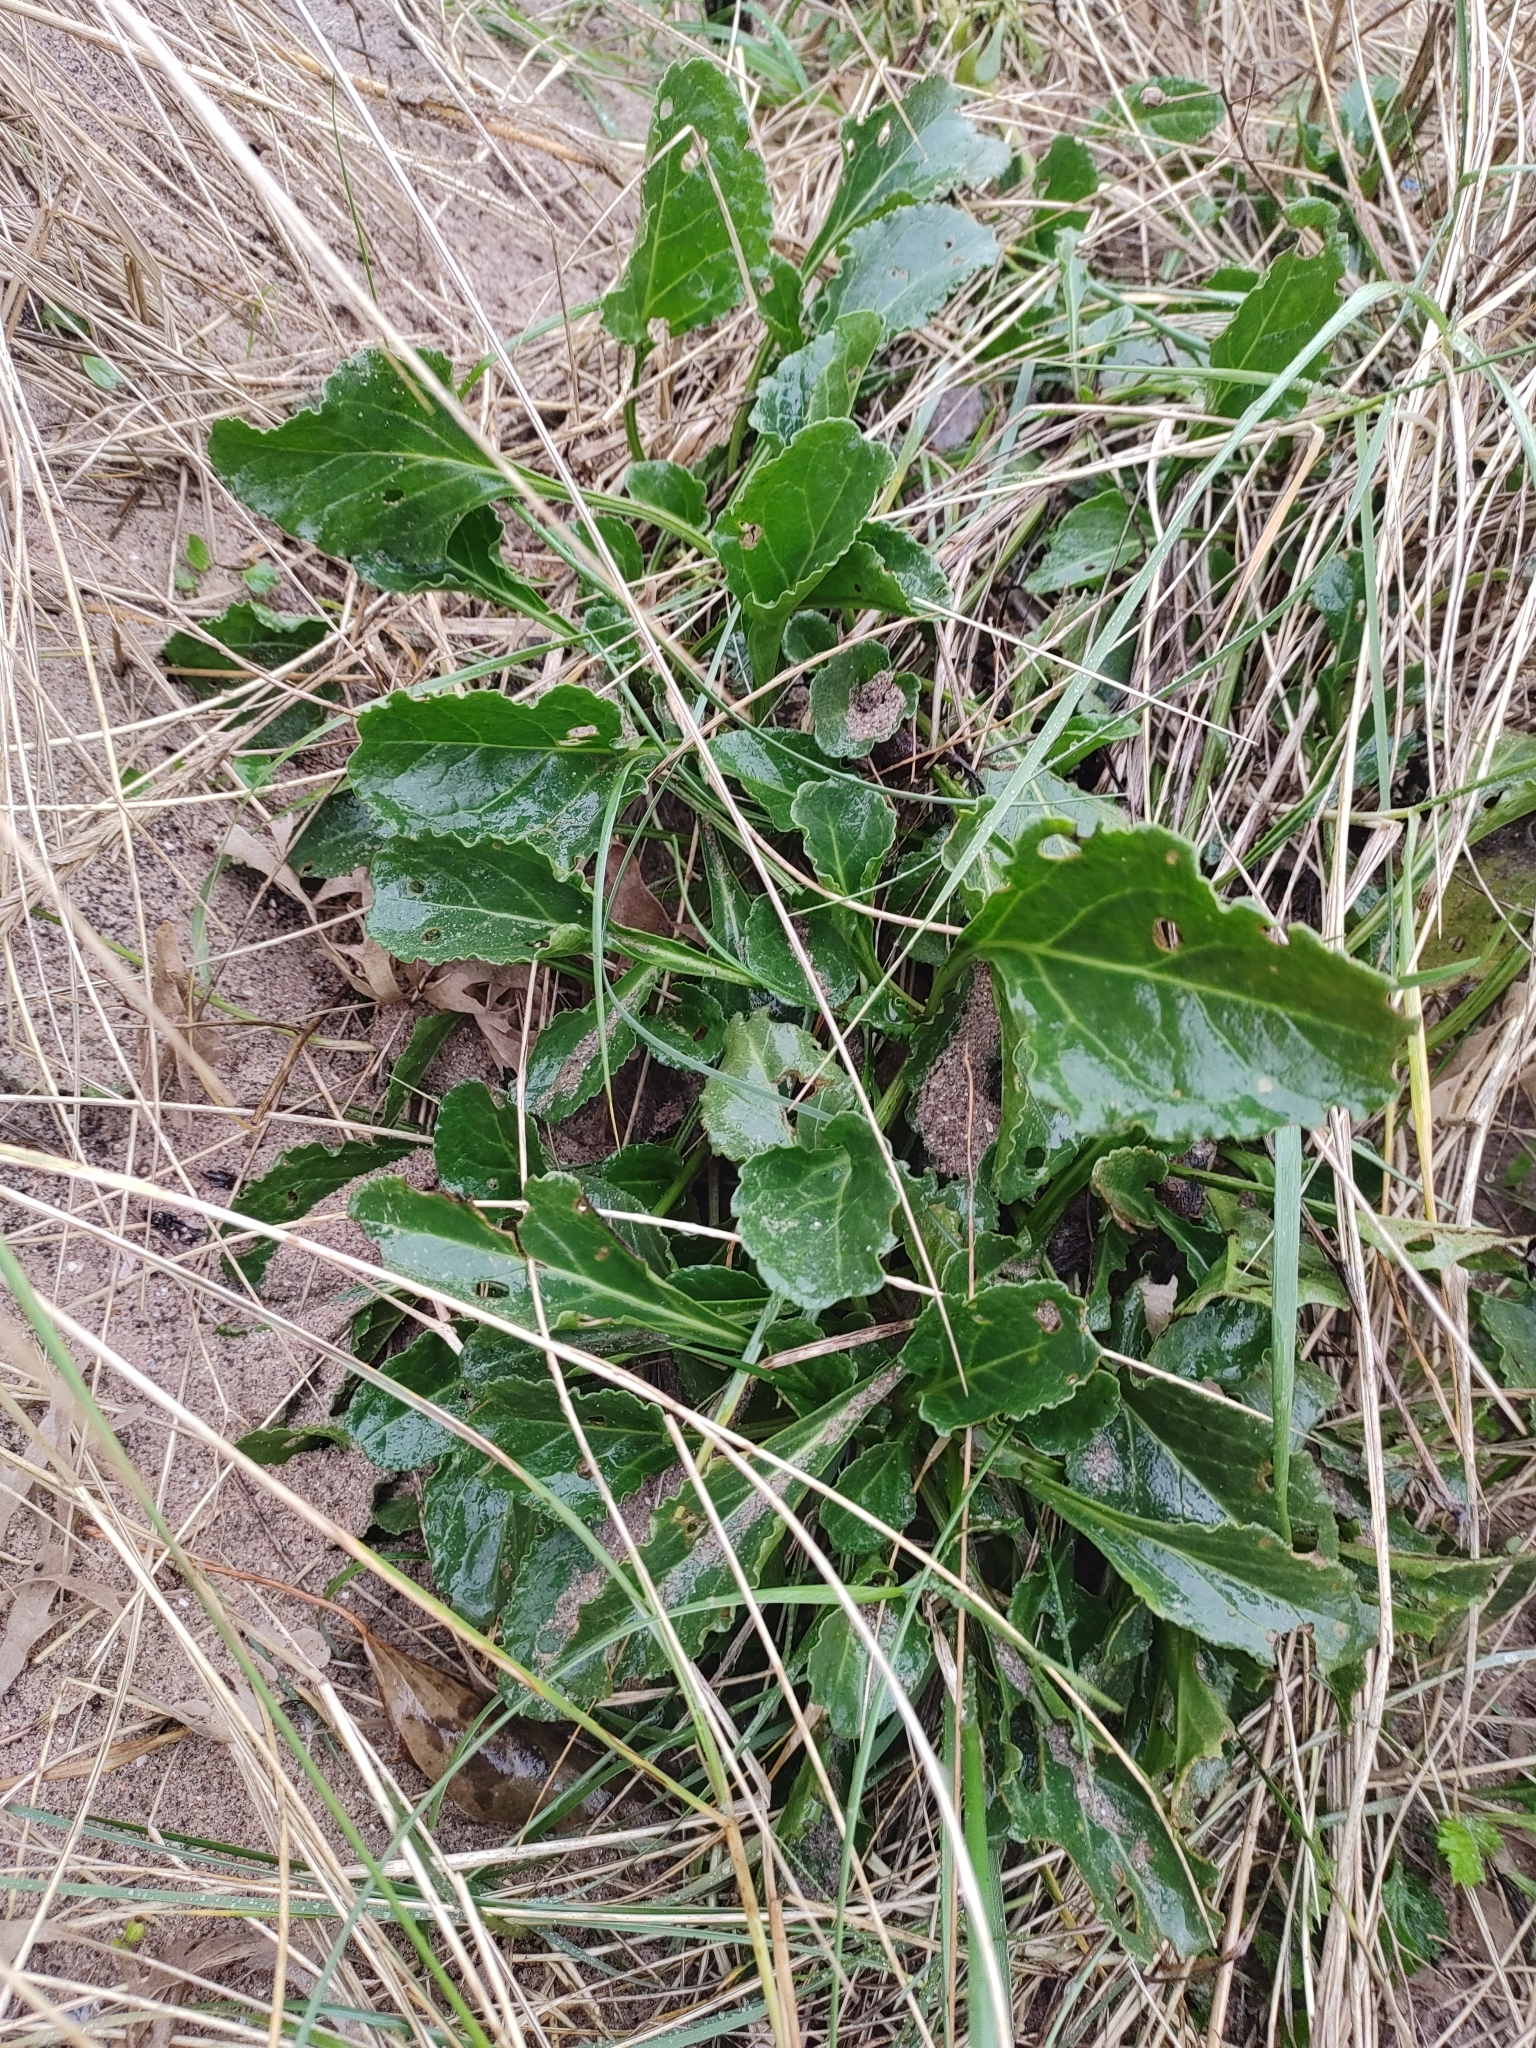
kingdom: Plantae
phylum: Tracheophyta
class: Magnoliopsida
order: Caryophyllales
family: Amaranthaceae
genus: Beta
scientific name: Beta vulgaris
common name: Beet
